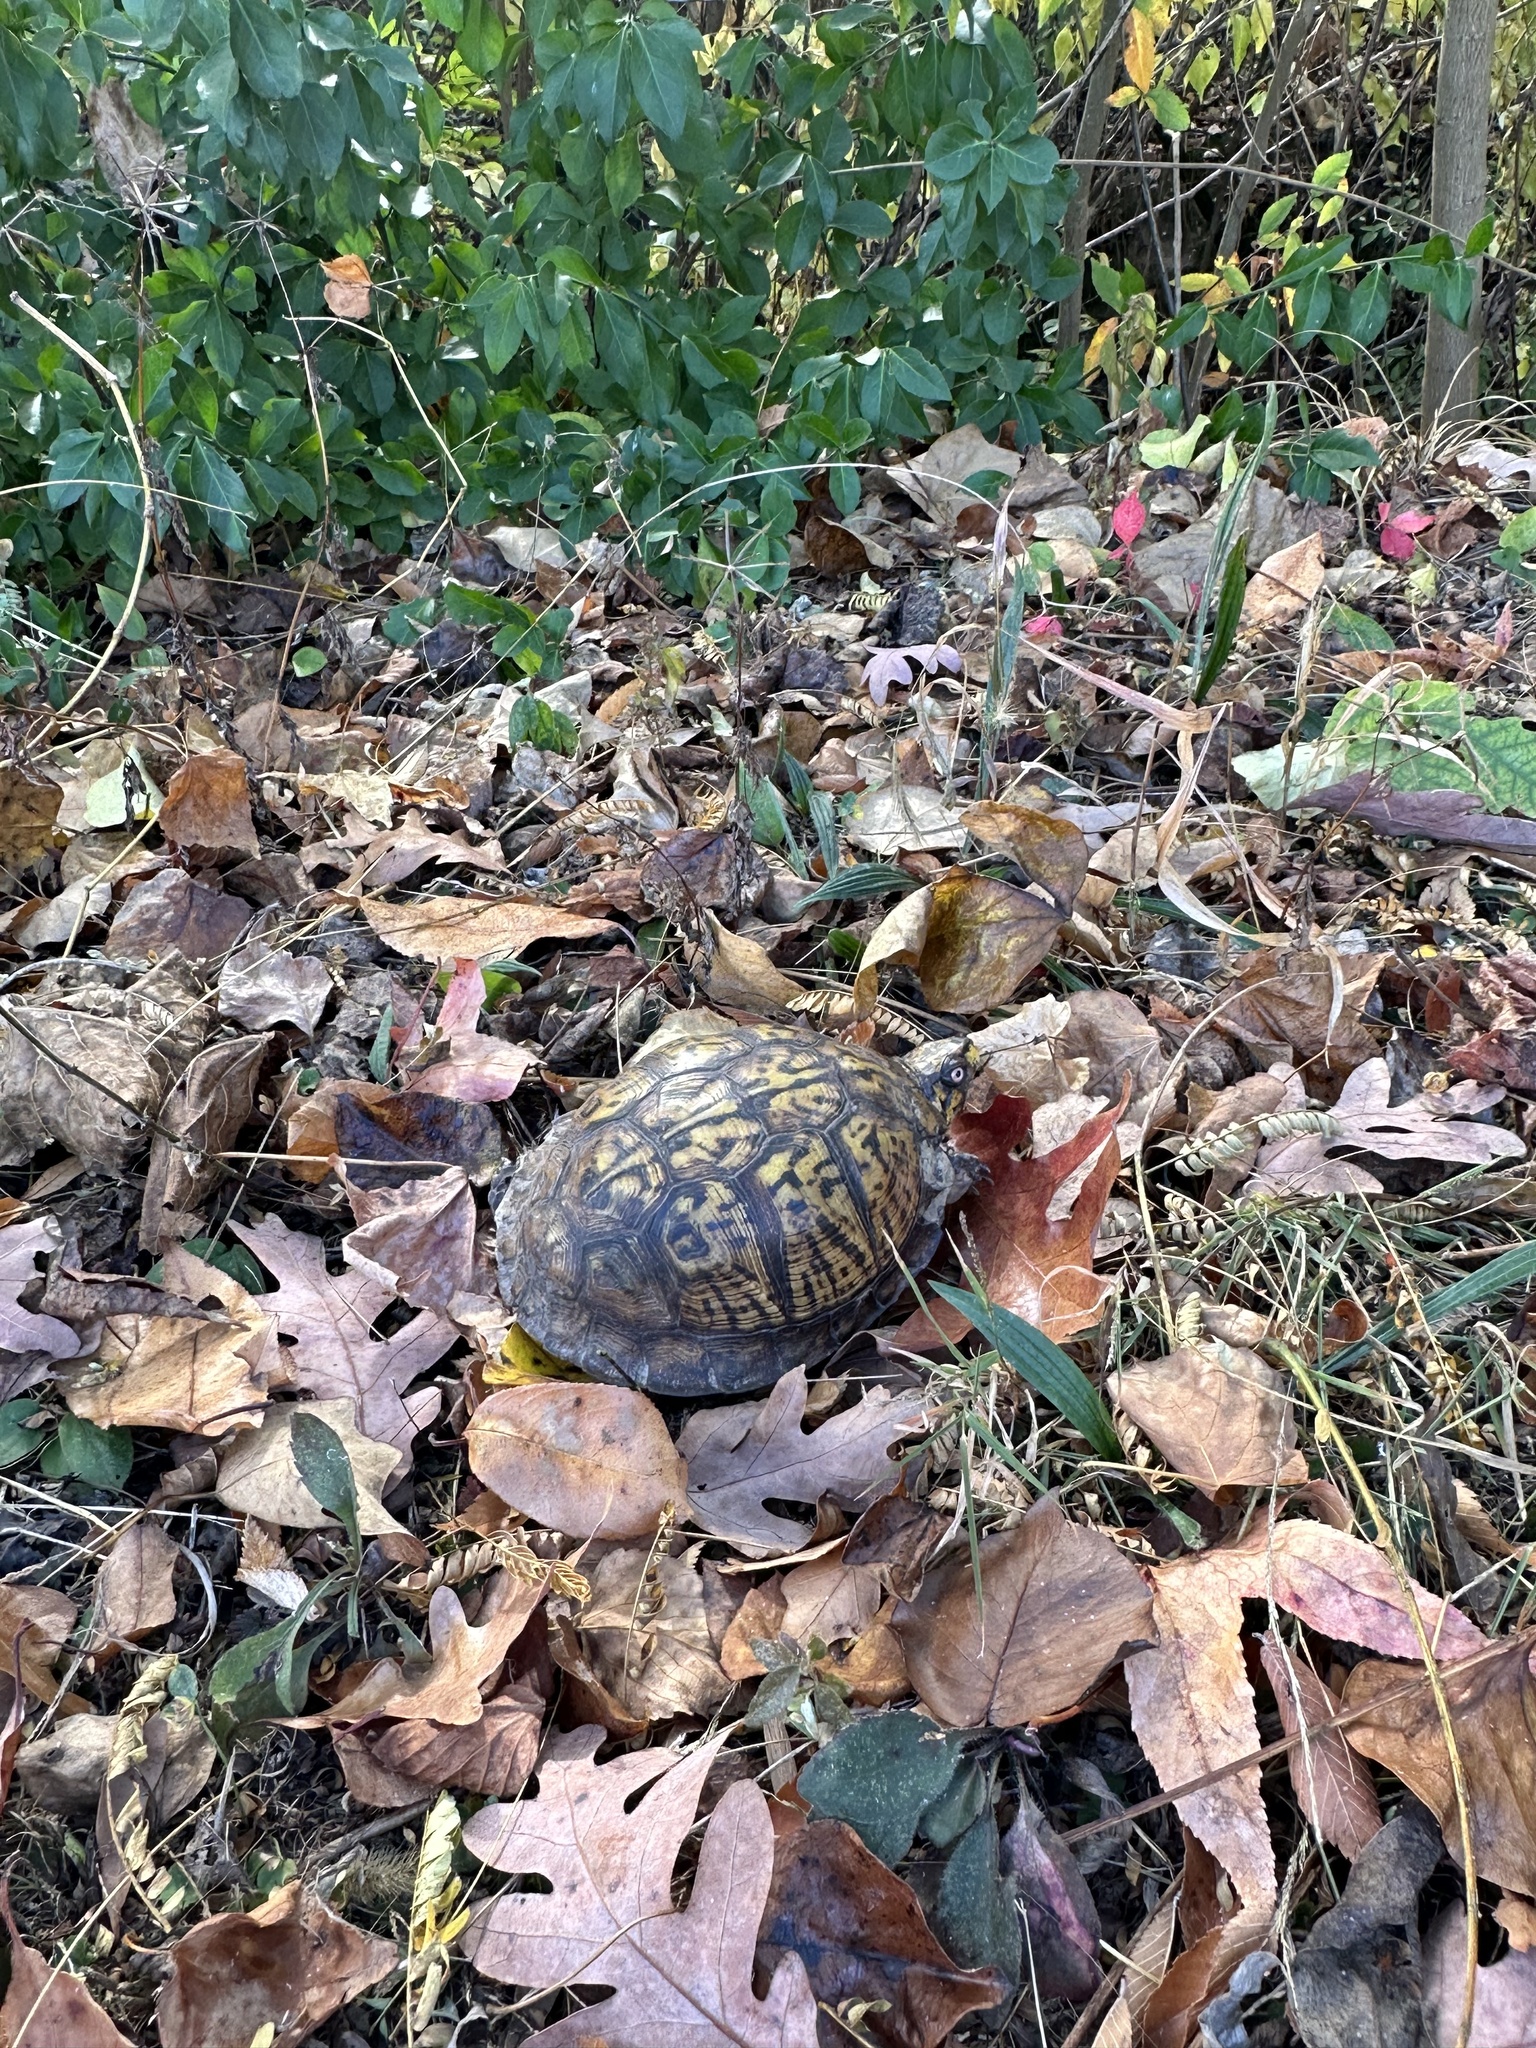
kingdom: Animalia
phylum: Chordata
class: Testudines
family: Emydidae
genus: Terrapene
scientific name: Terrapene carolina
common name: Common box turtle
